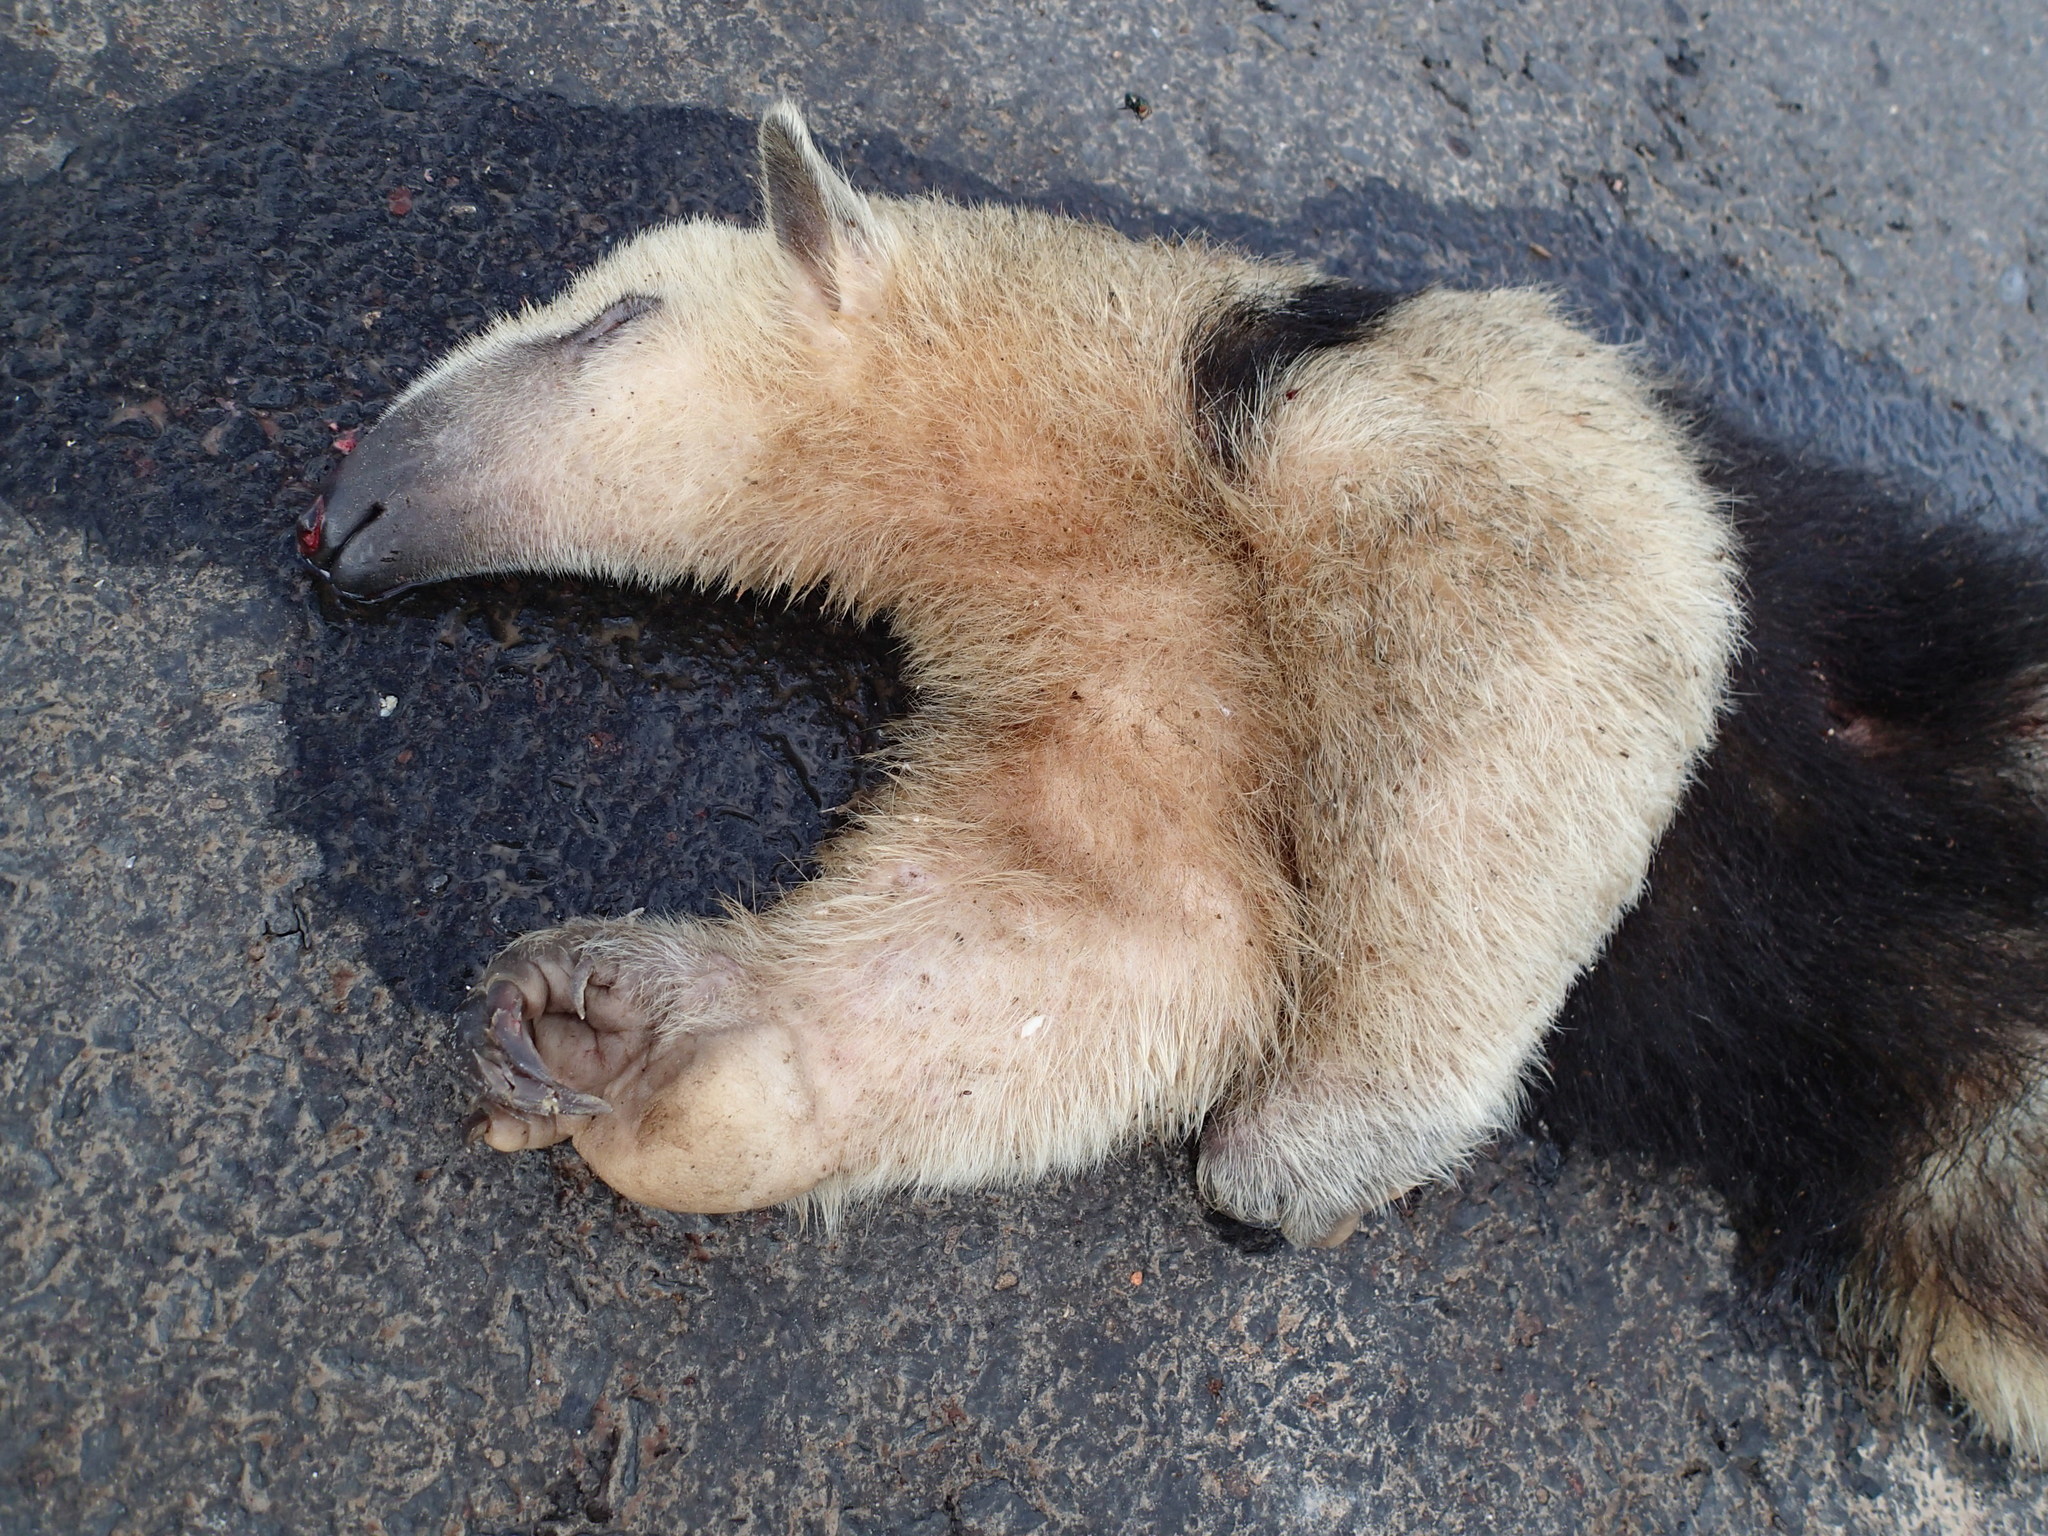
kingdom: Animalia
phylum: Chordata
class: Mammalia
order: Pilosa
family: Myrmecophagidae
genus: Tamandua
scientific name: Tamandua tetradactyla
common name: Southern tamandua
